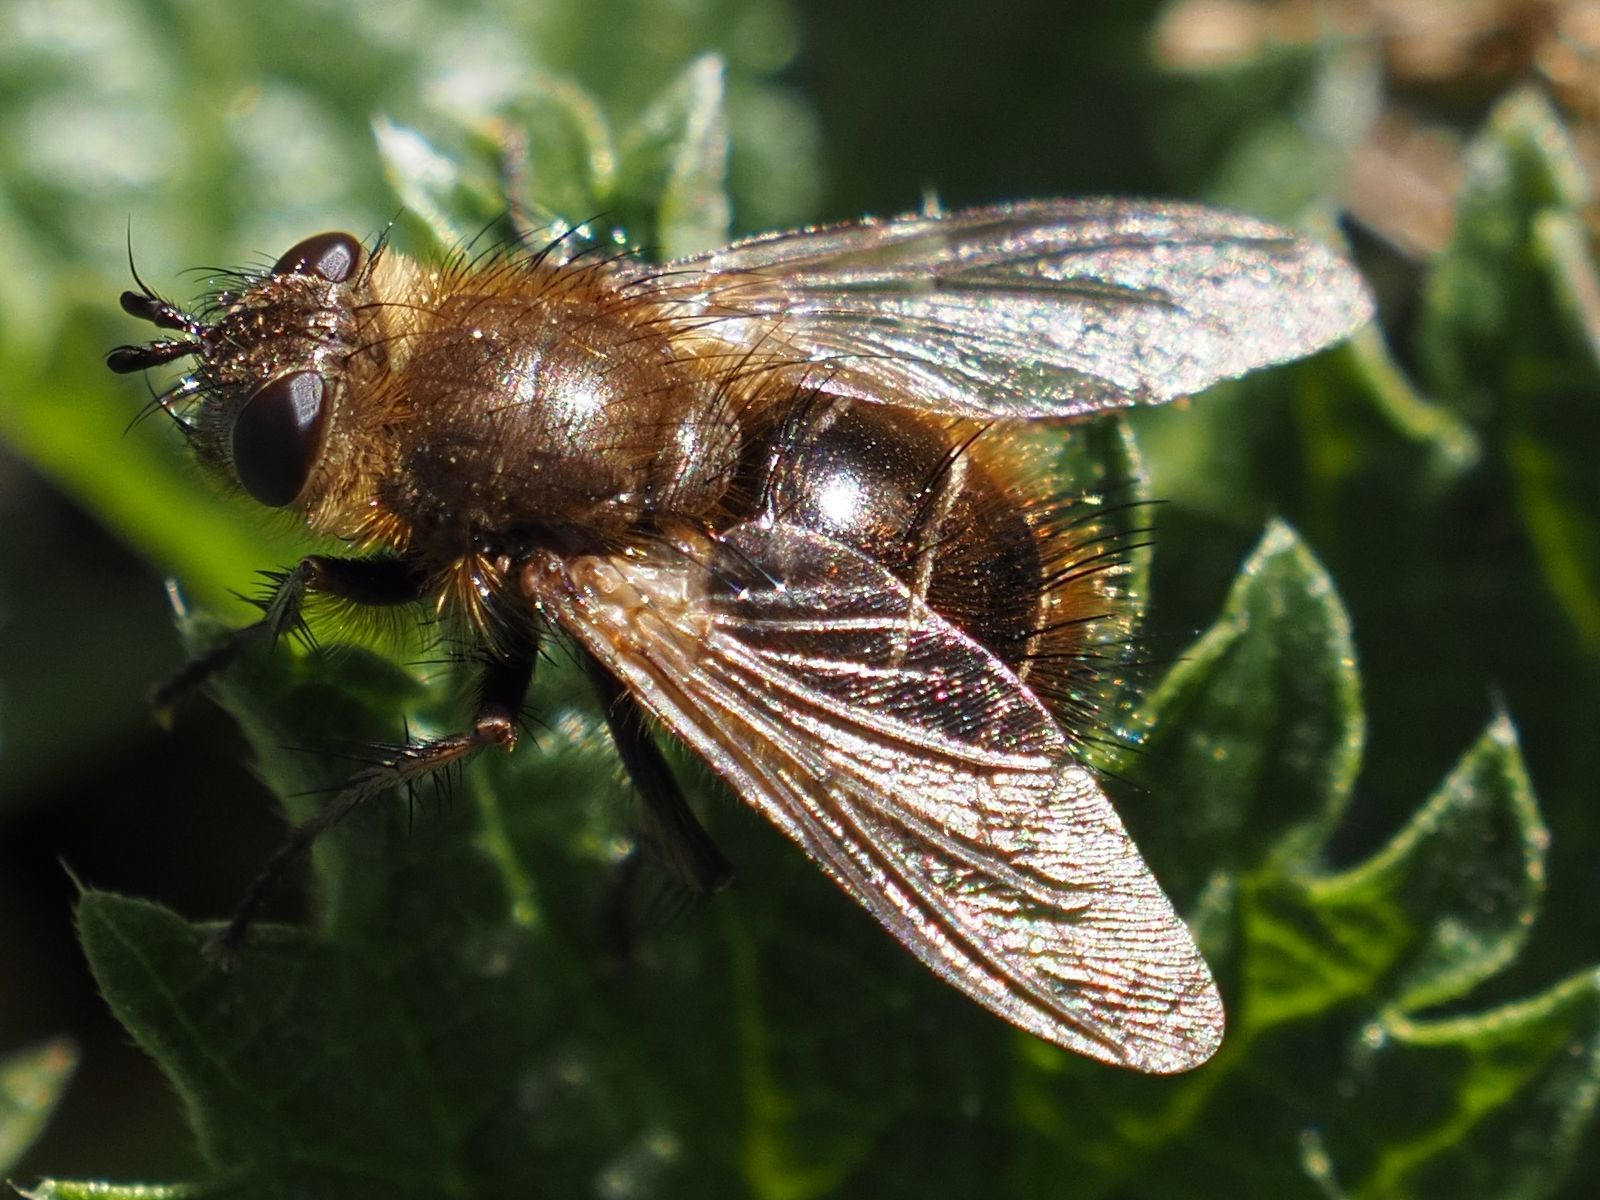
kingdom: Animalia
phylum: Arthropoda
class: Insecta
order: Diptera
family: Tachinidae
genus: Tachina
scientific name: Tachina ursina
